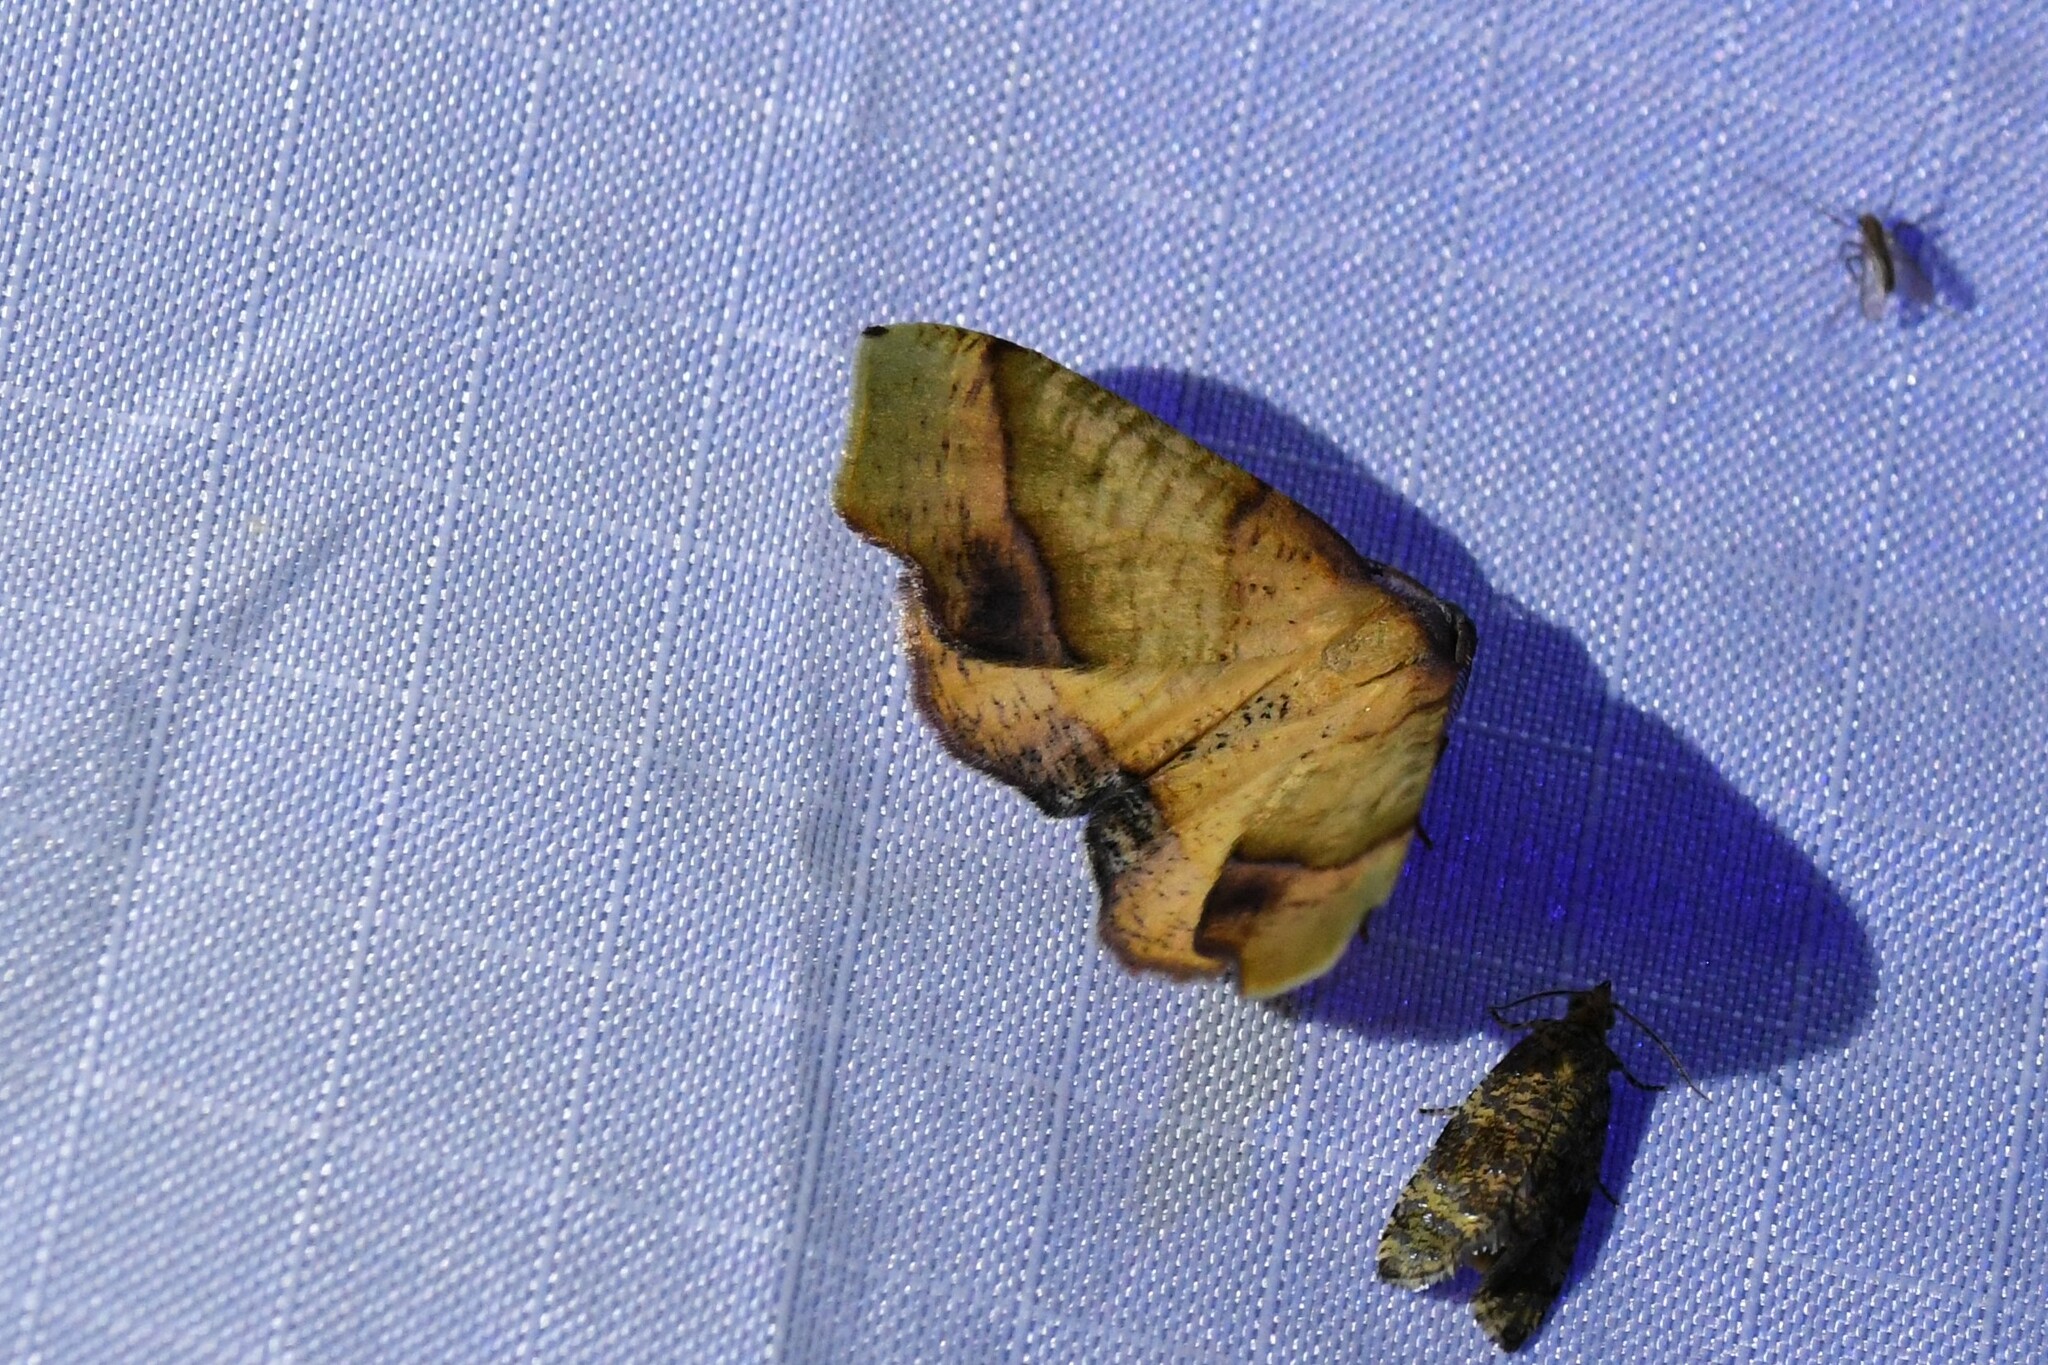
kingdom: Animalia
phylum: Arthropoda
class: Insecta
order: Lepidoptera
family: Geometridae
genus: Plagodis
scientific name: Plagodis phlogosaria
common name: Straight-lined plagodis
